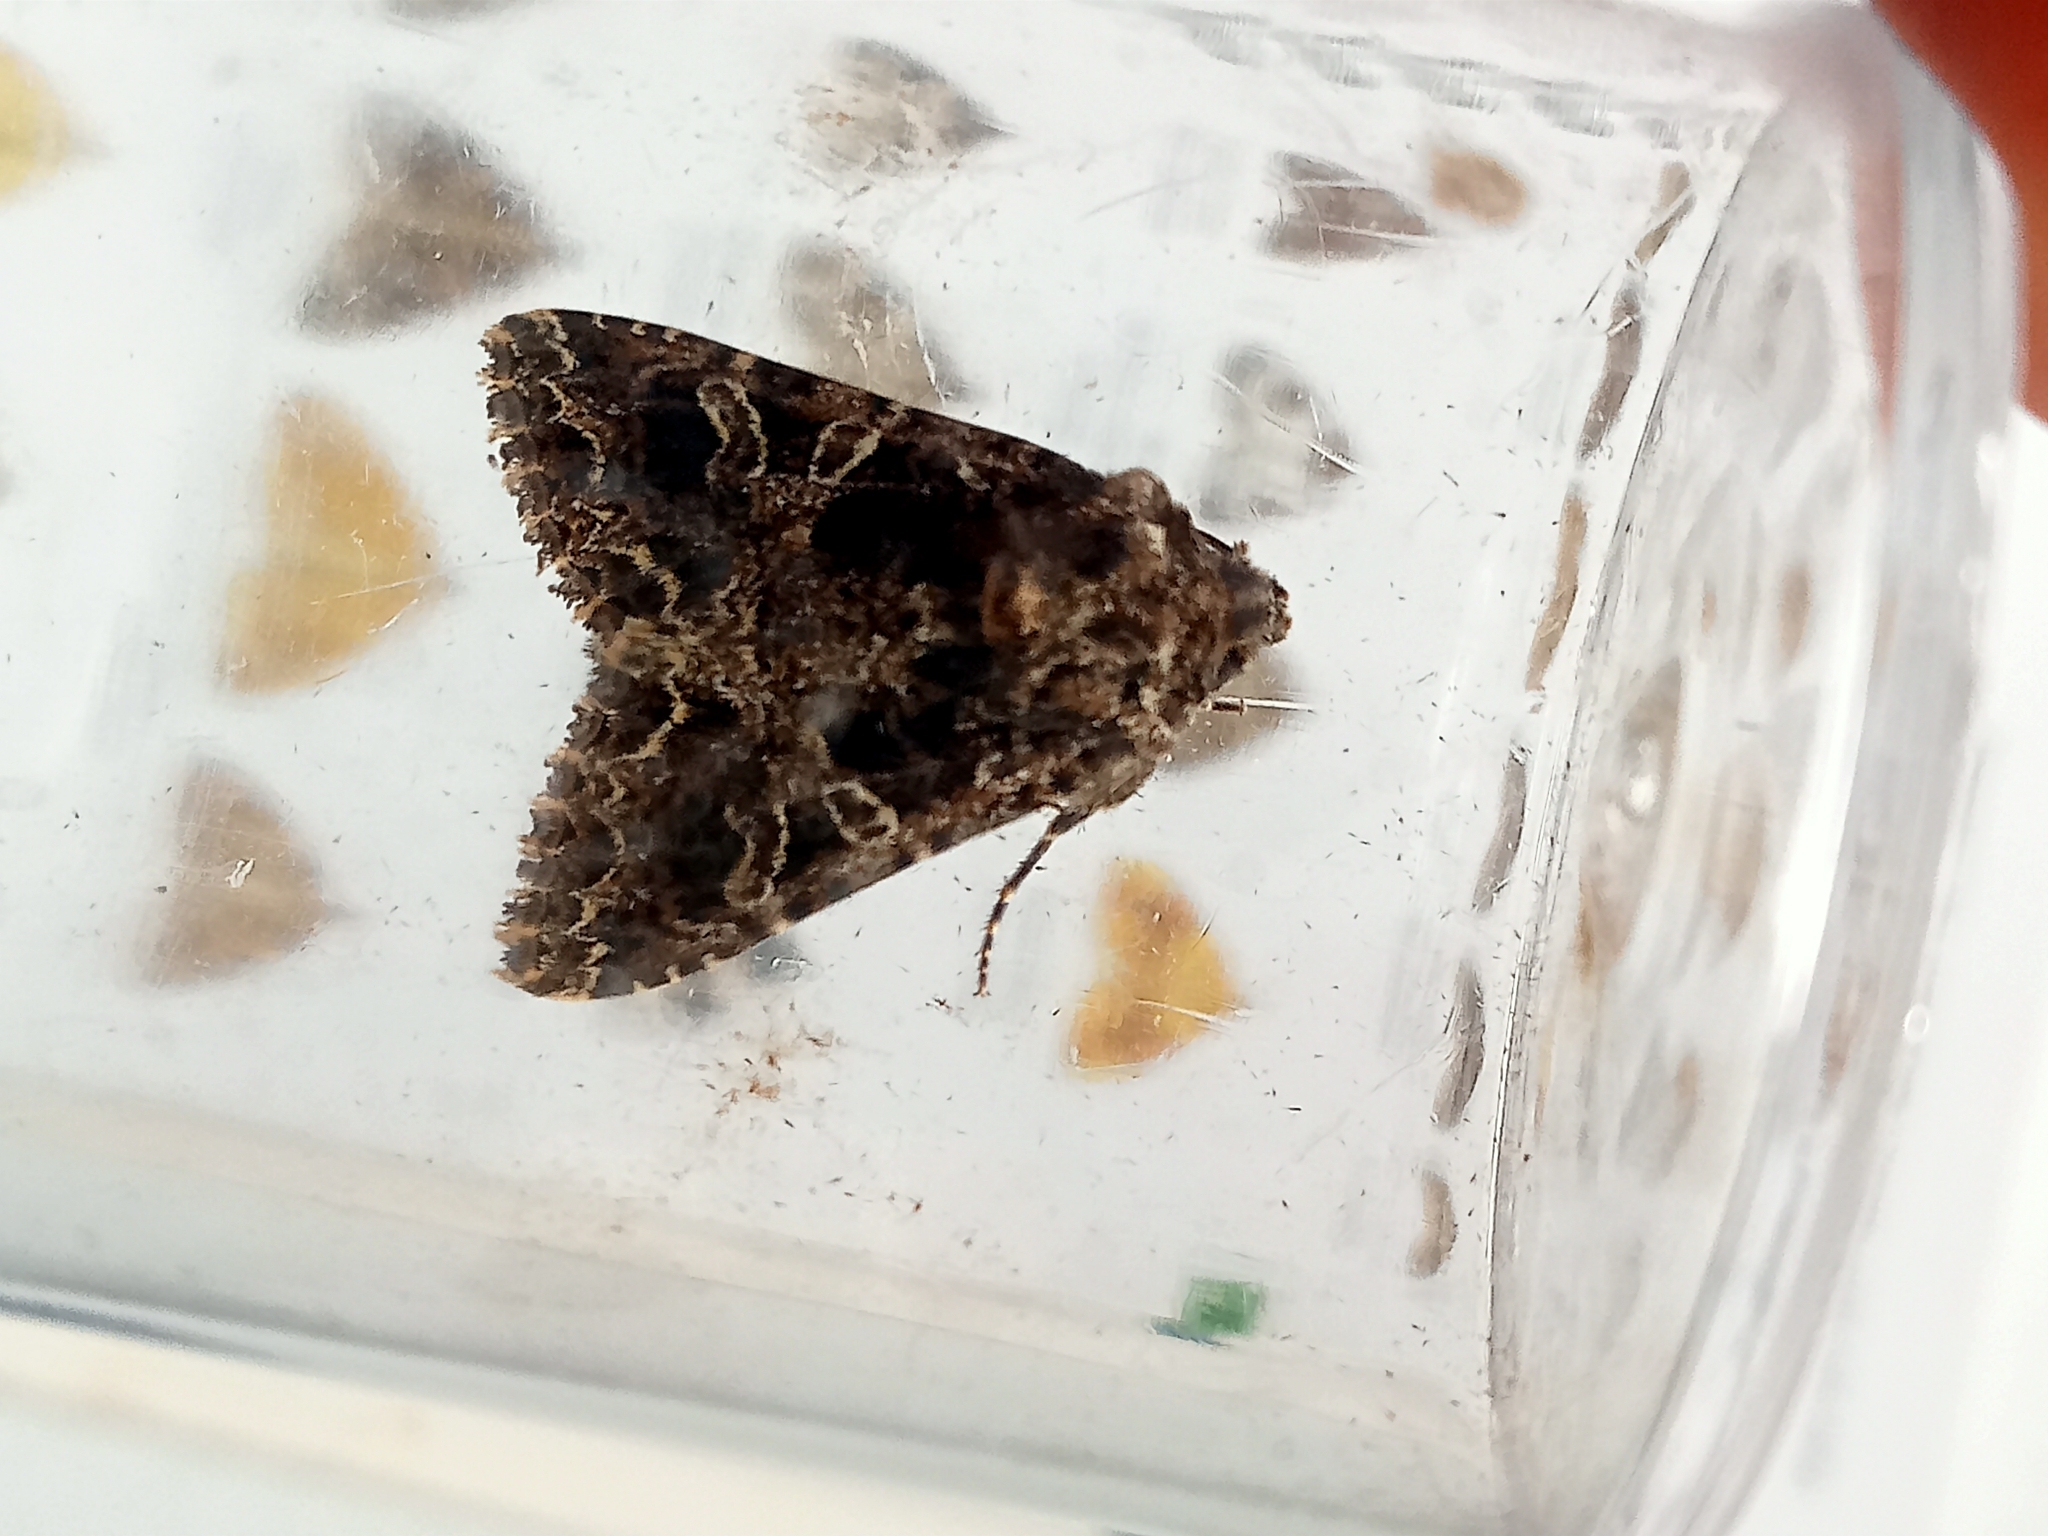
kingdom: Animalia
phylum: Arthropoda
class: Insecta
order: Lepidoptera
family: Noctuidae
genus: Hadena
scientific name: Hadena bicruris
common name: Lychnis
